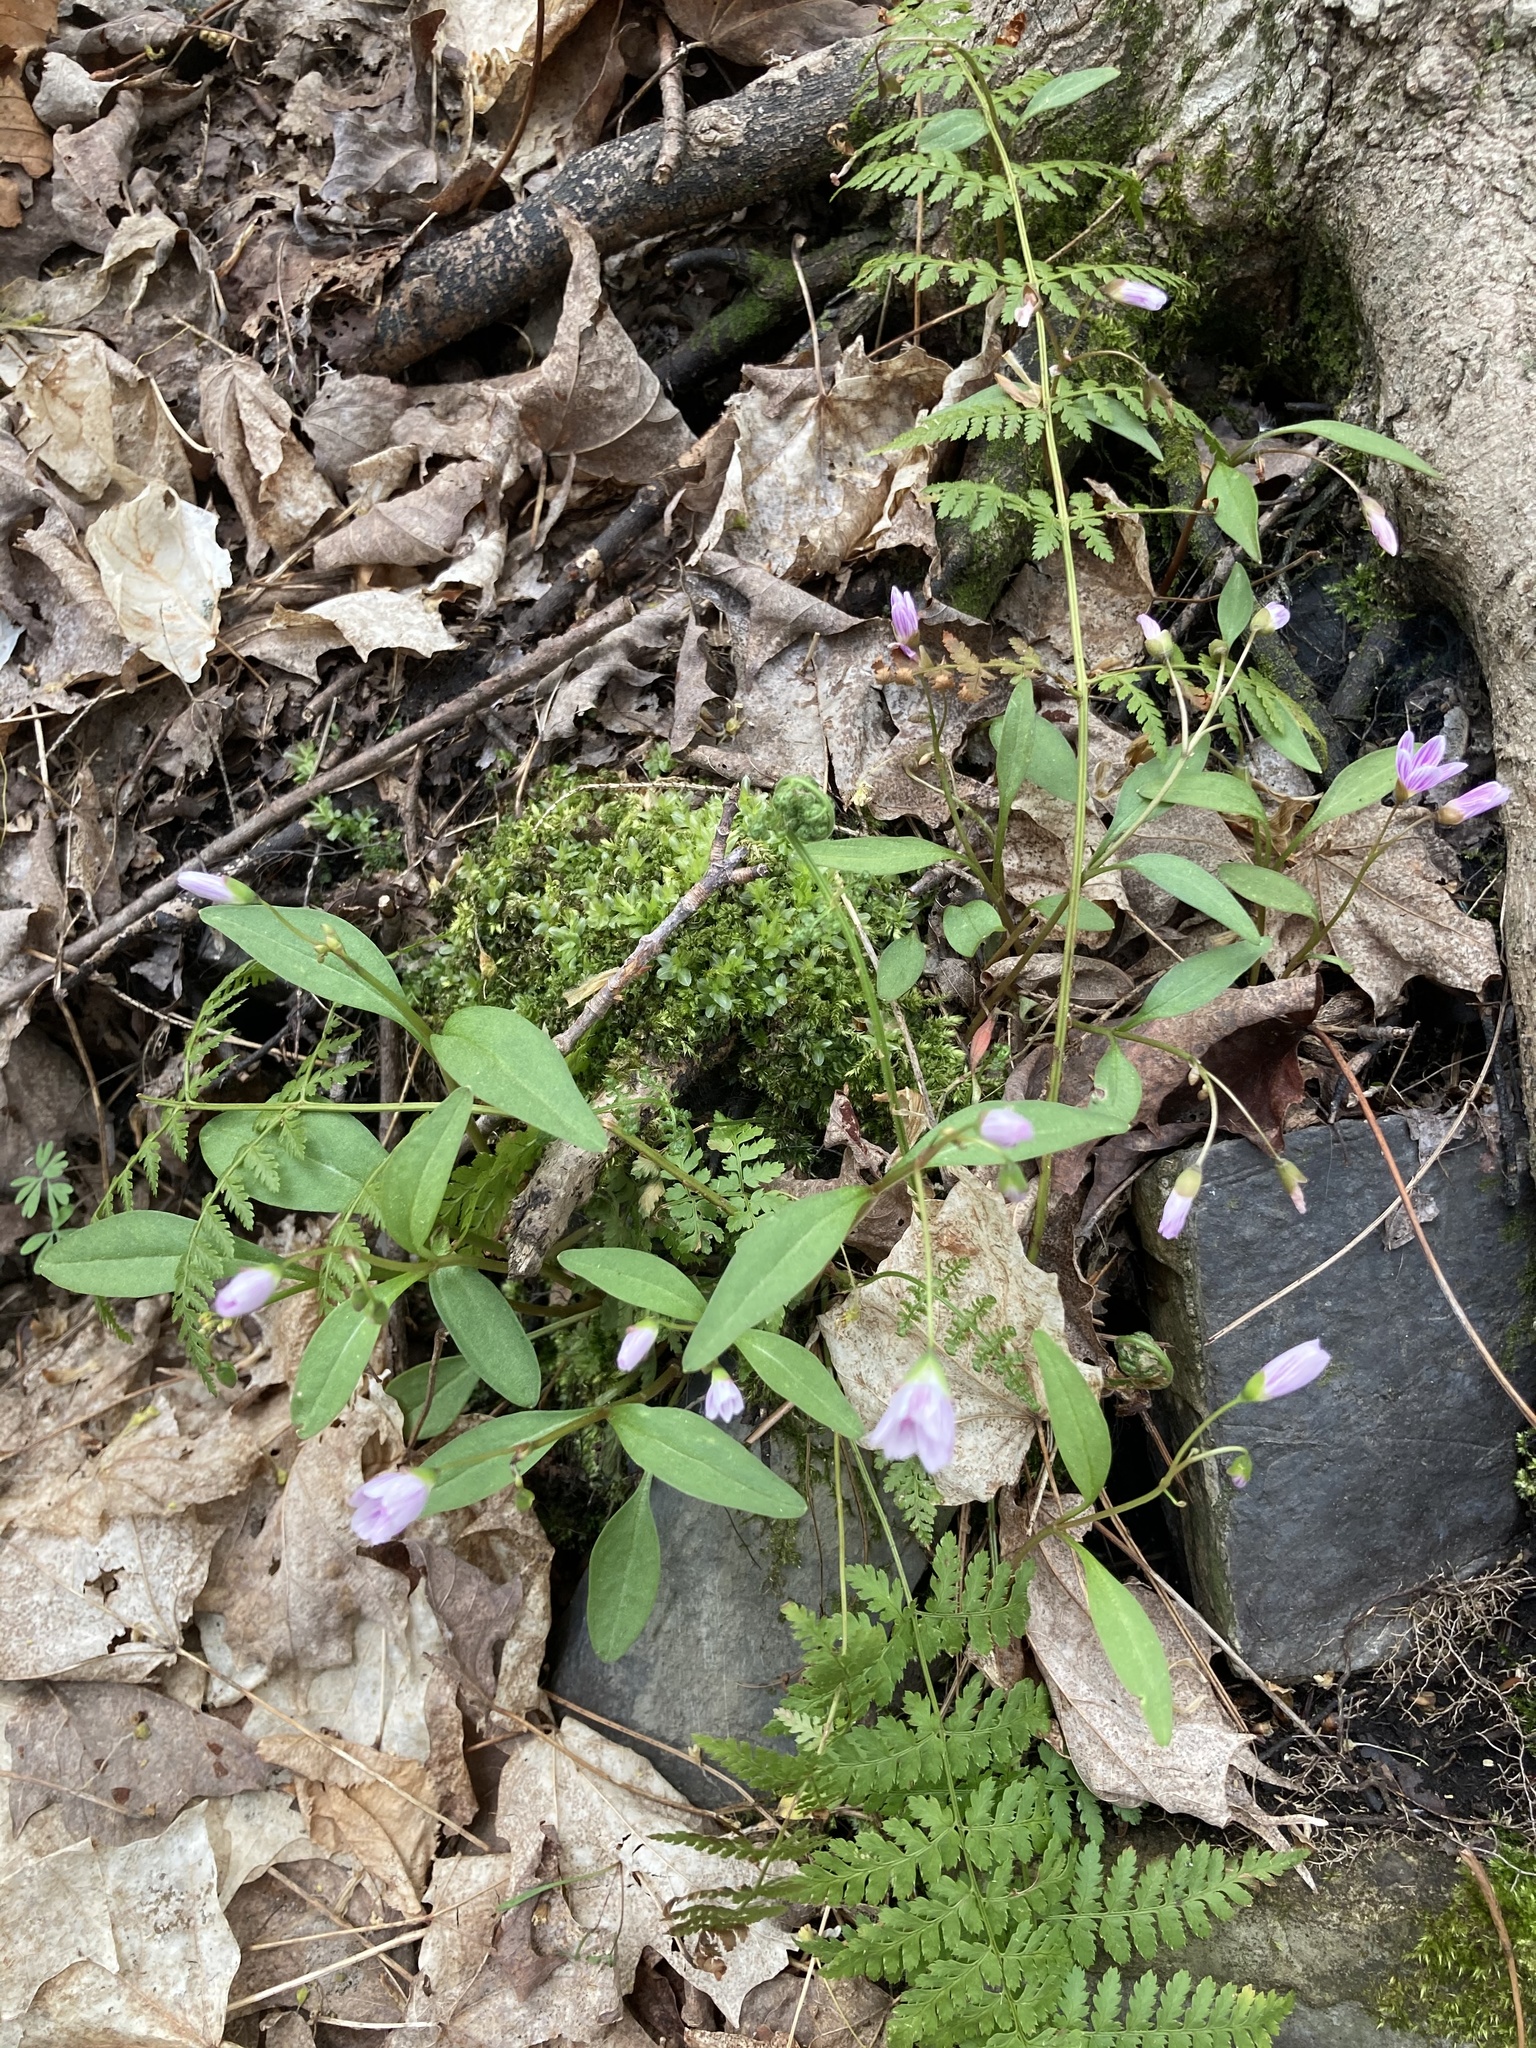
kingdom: Plantae
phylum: Tracheophyta
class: Magnoliopsida
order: Caryophyllales
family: Montiaceae
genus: Claytonia
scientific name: Claytonia caroliniana
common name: Carolina spring beauty
